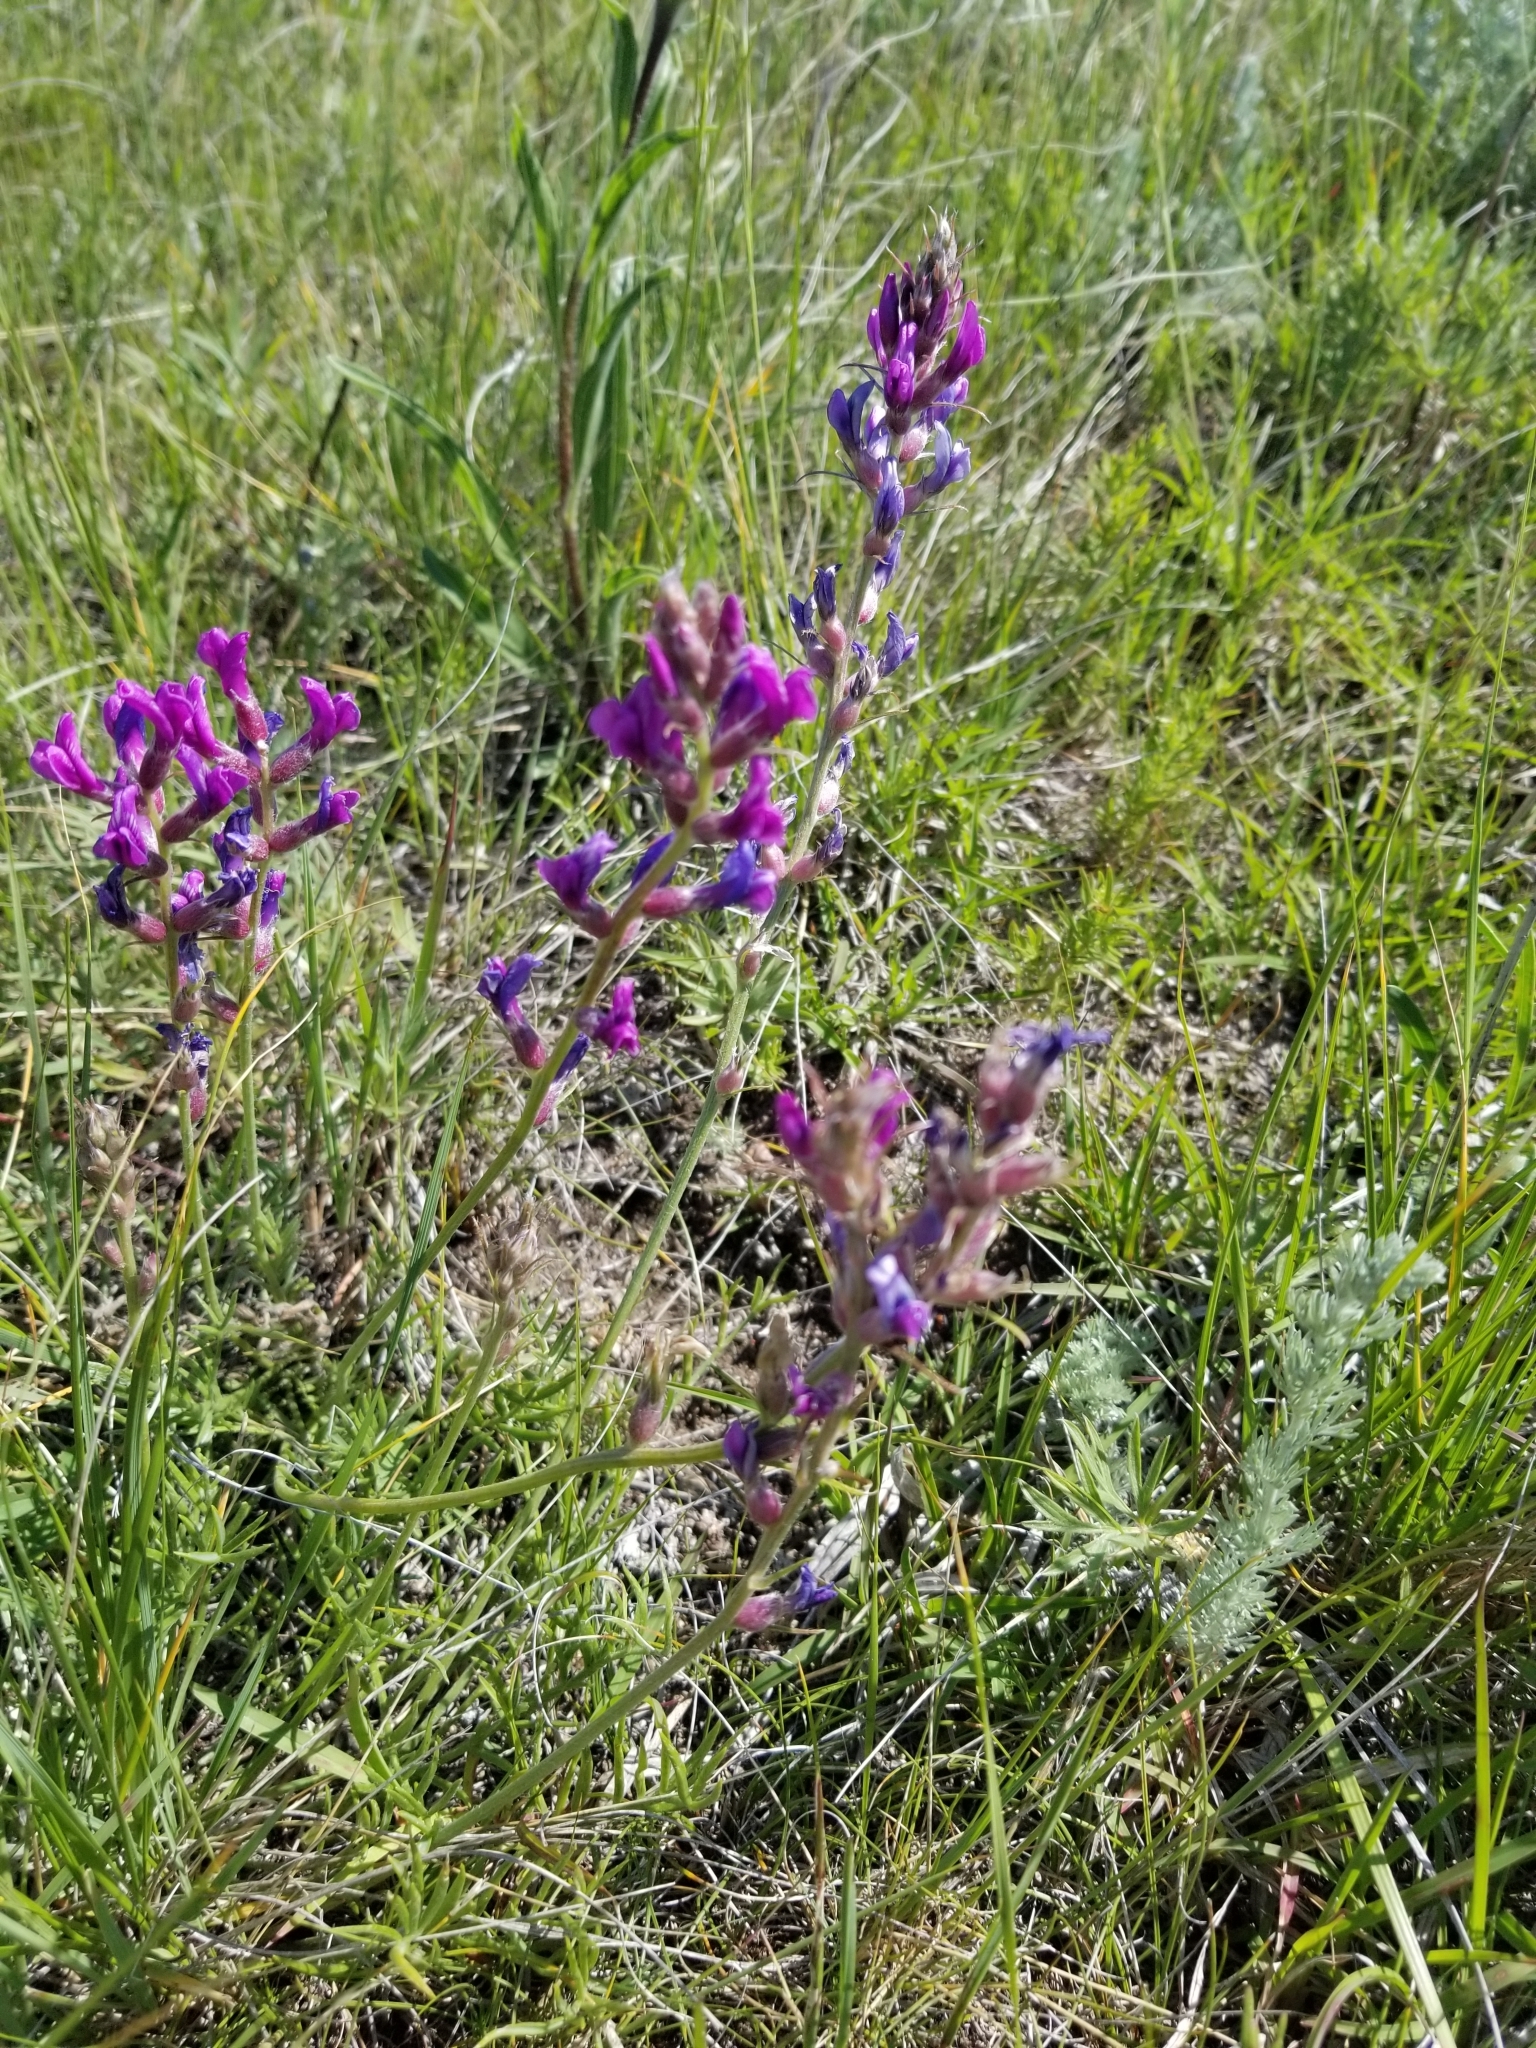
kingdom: Plantae
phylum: Tracheophyta
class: Magnoliopsida
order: Fabales
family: Fabaceae
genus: Oxytropis
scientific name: Oxytropis lambertii
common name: Purple locoweed
